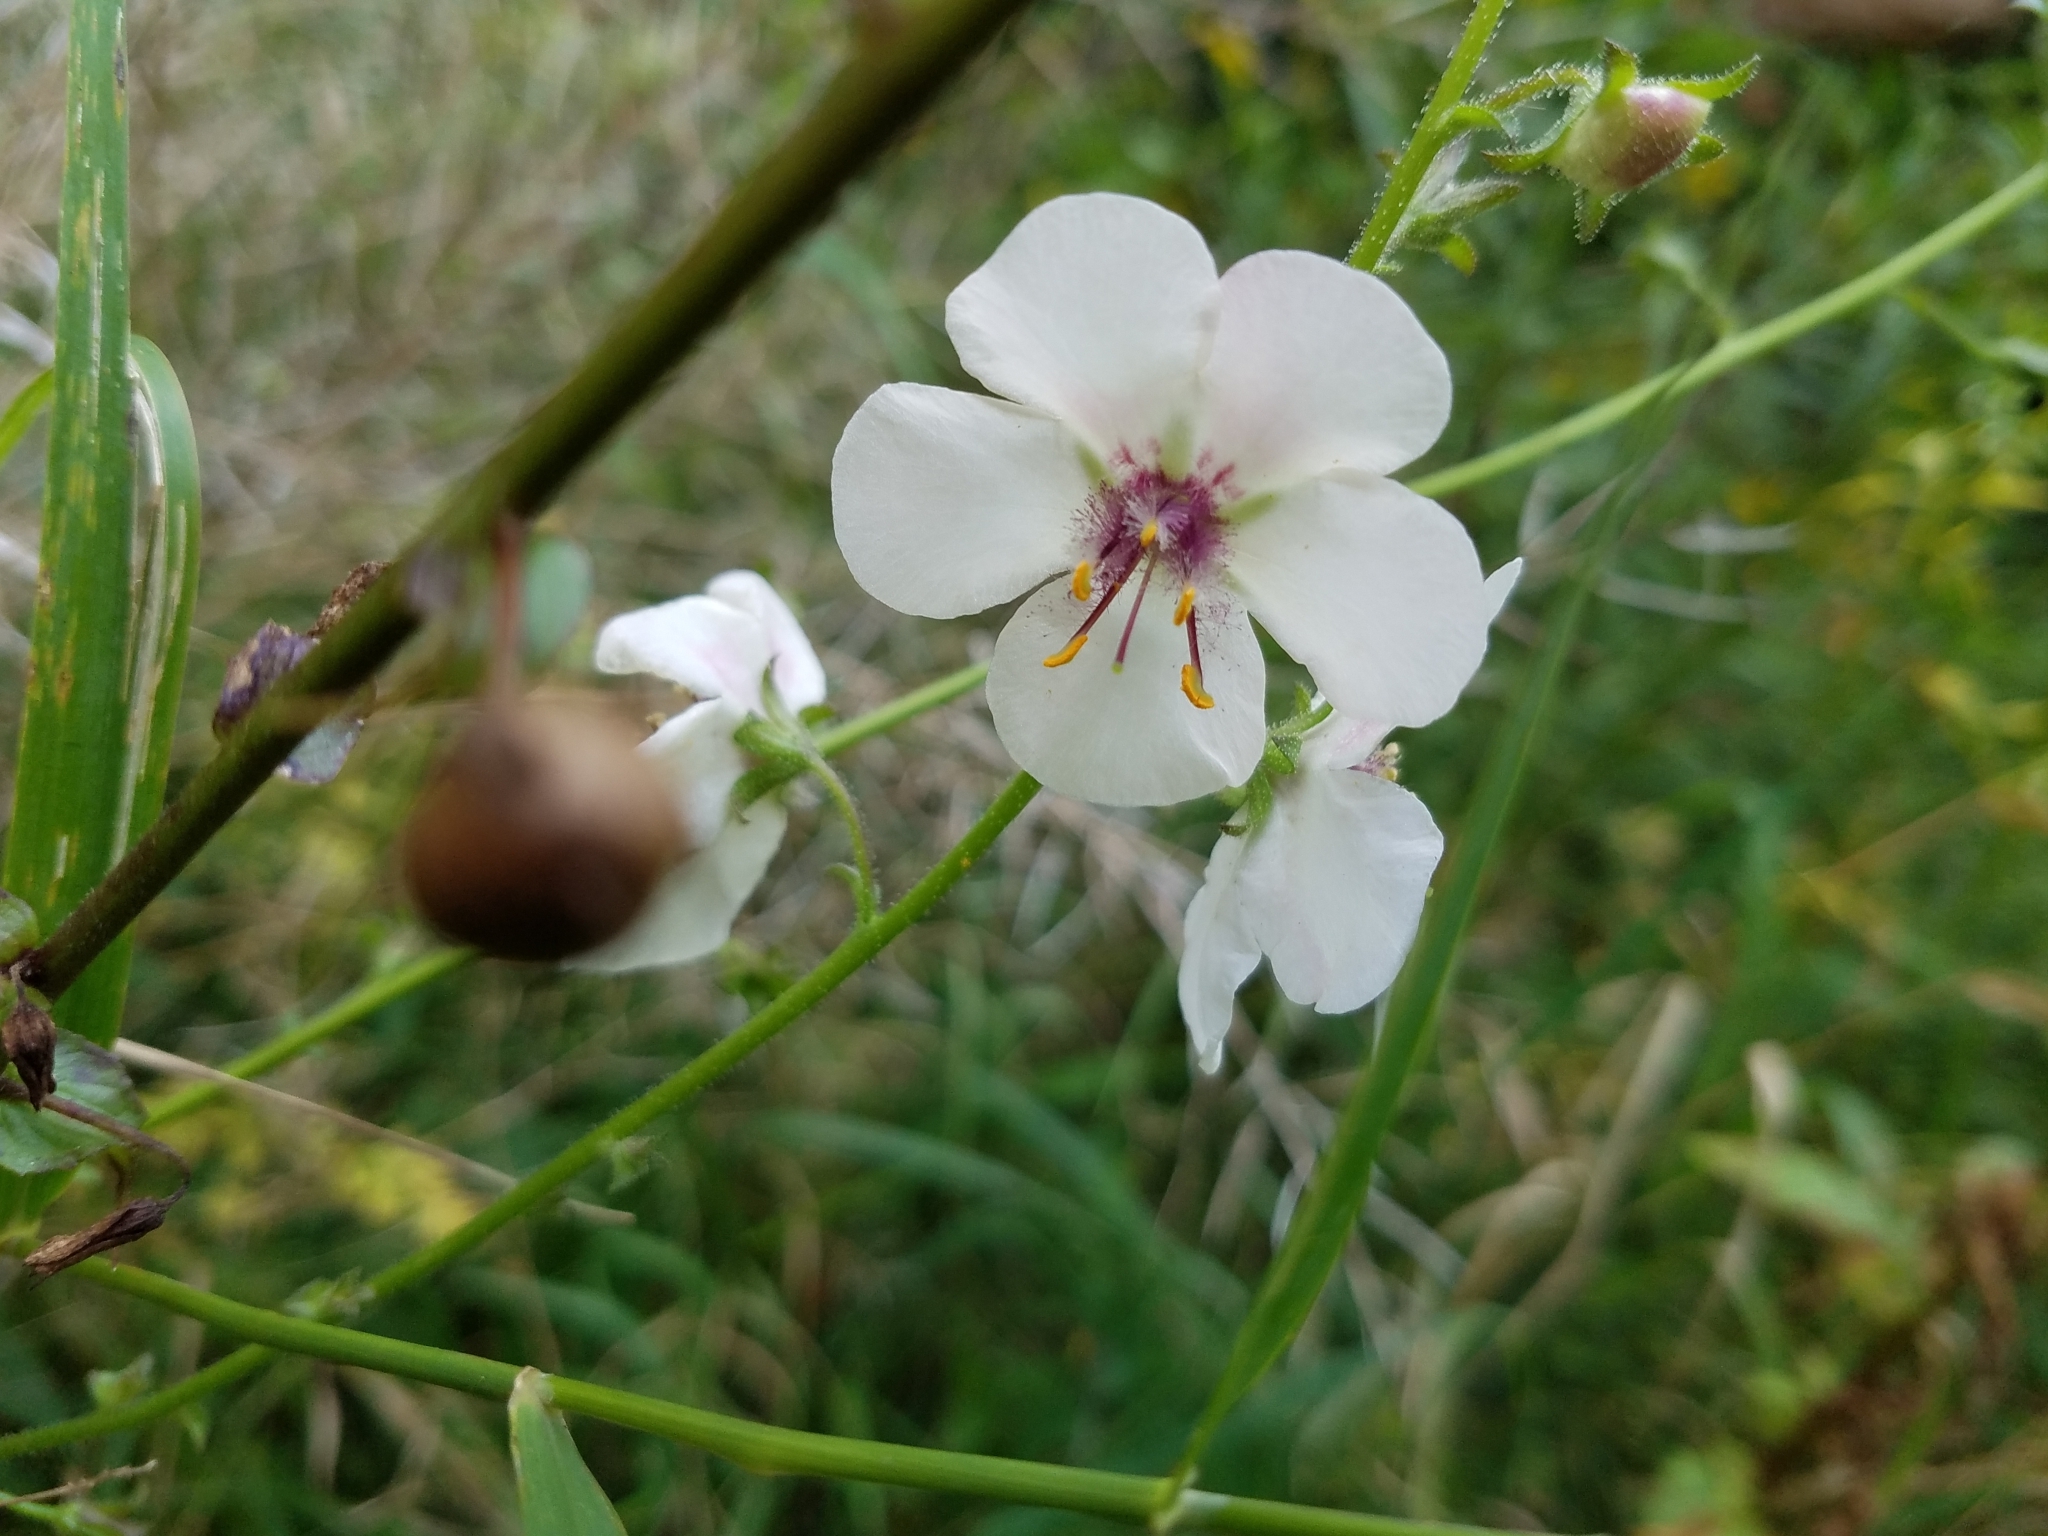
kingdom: Plantae
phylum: Tracheophyta
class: Magnoliopsida
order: Lamiales
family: Scrophulariaceae
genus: Verbascum
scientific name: Verbascum blattaria
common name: Moth mullein
